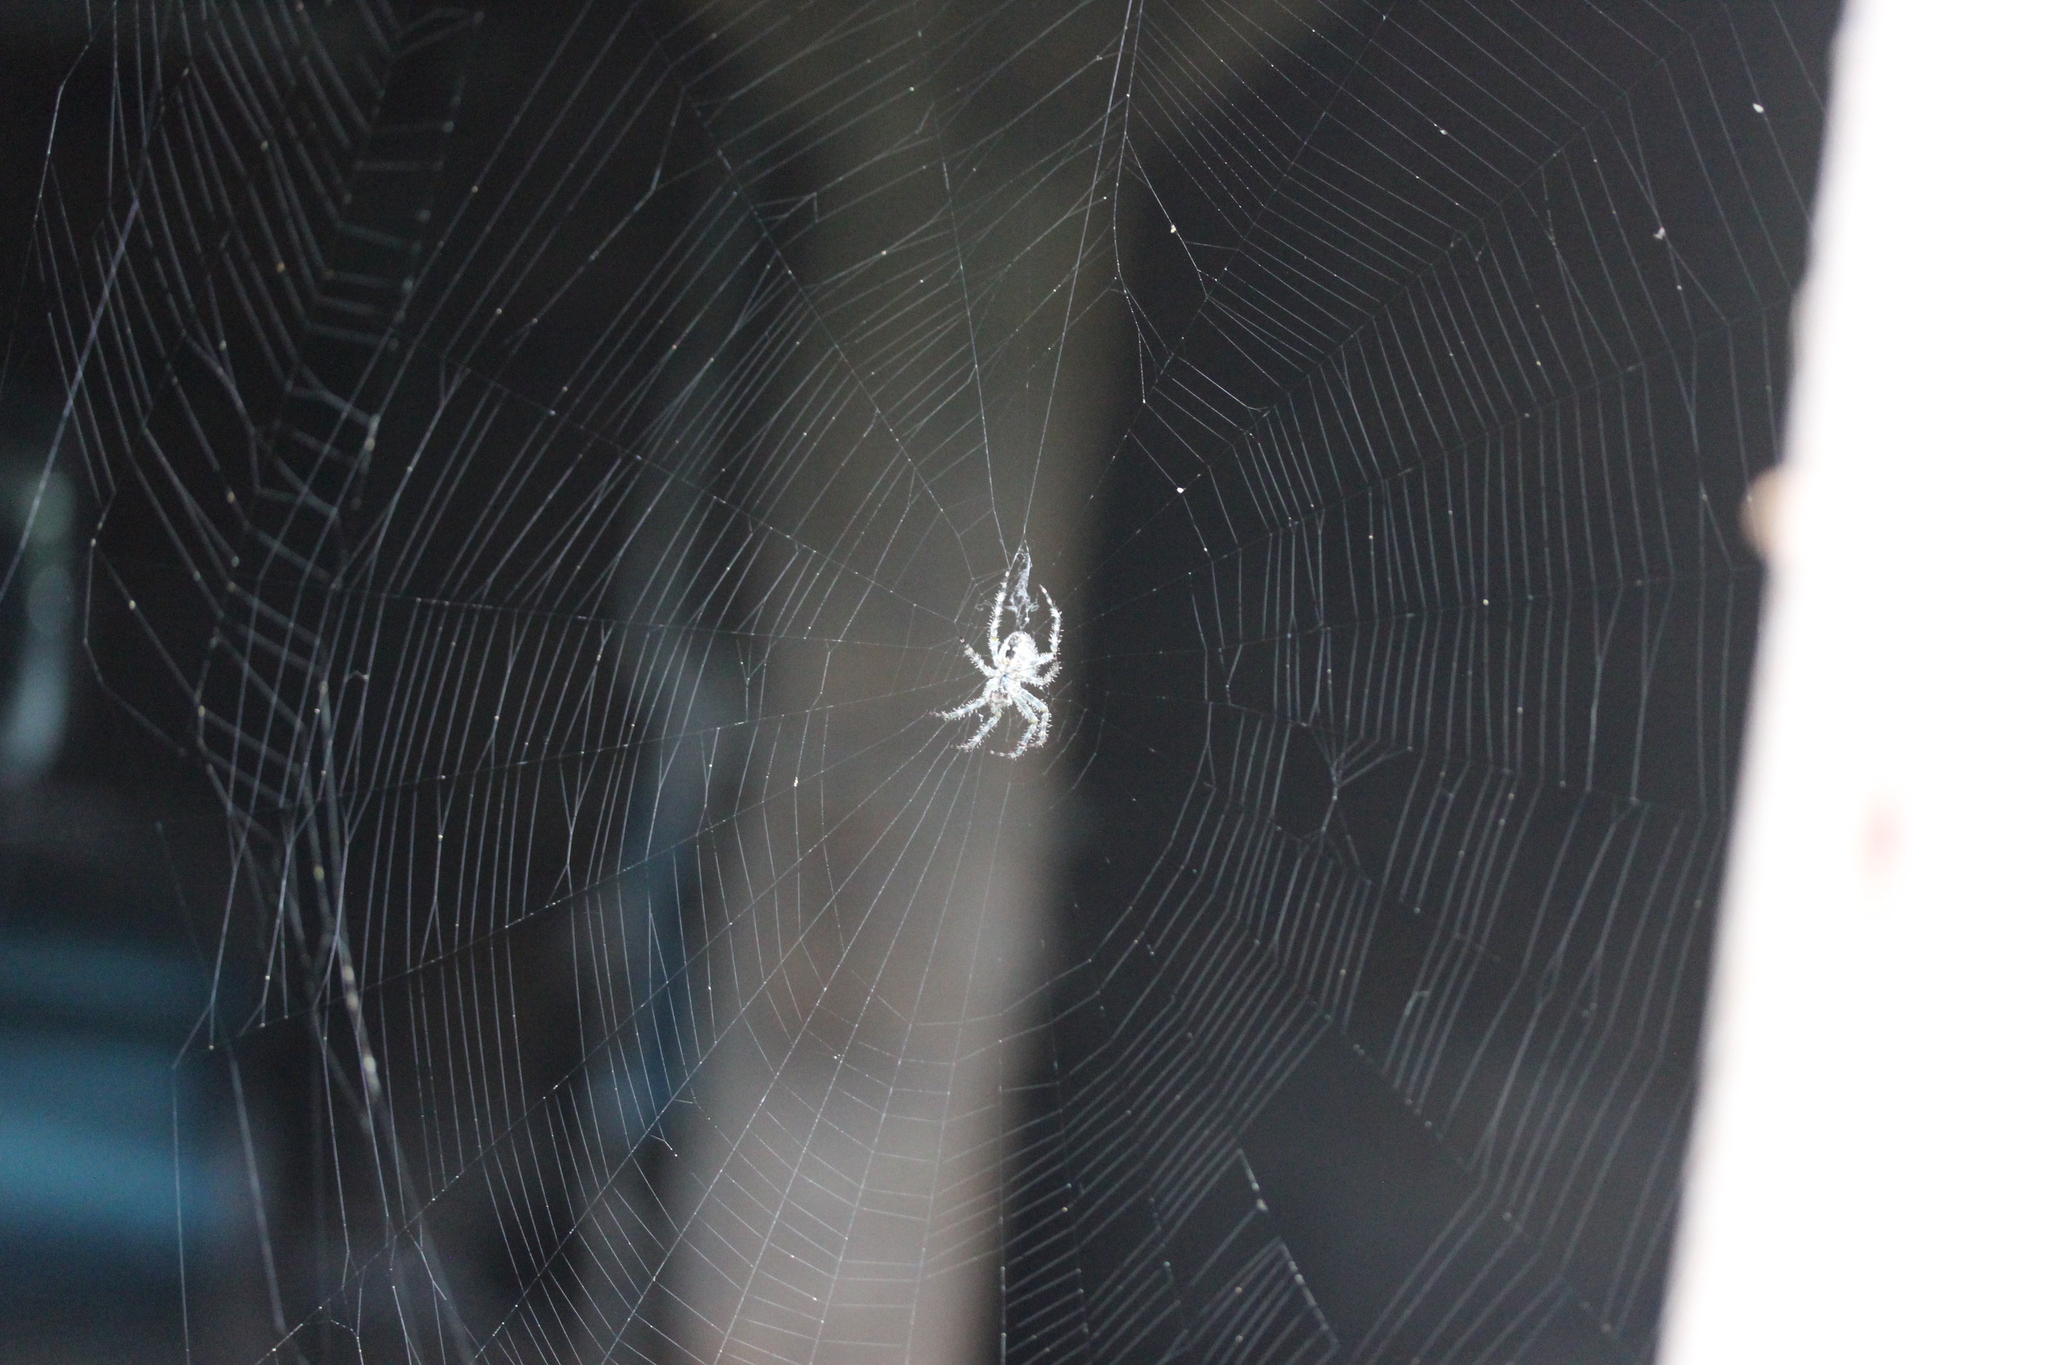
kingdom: Animalia
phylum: Arthropoda
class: Arachnida
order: Araneae
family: Araneidae
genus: Araneus
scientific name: Araneus cavaticus
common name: Barn orbweaver
